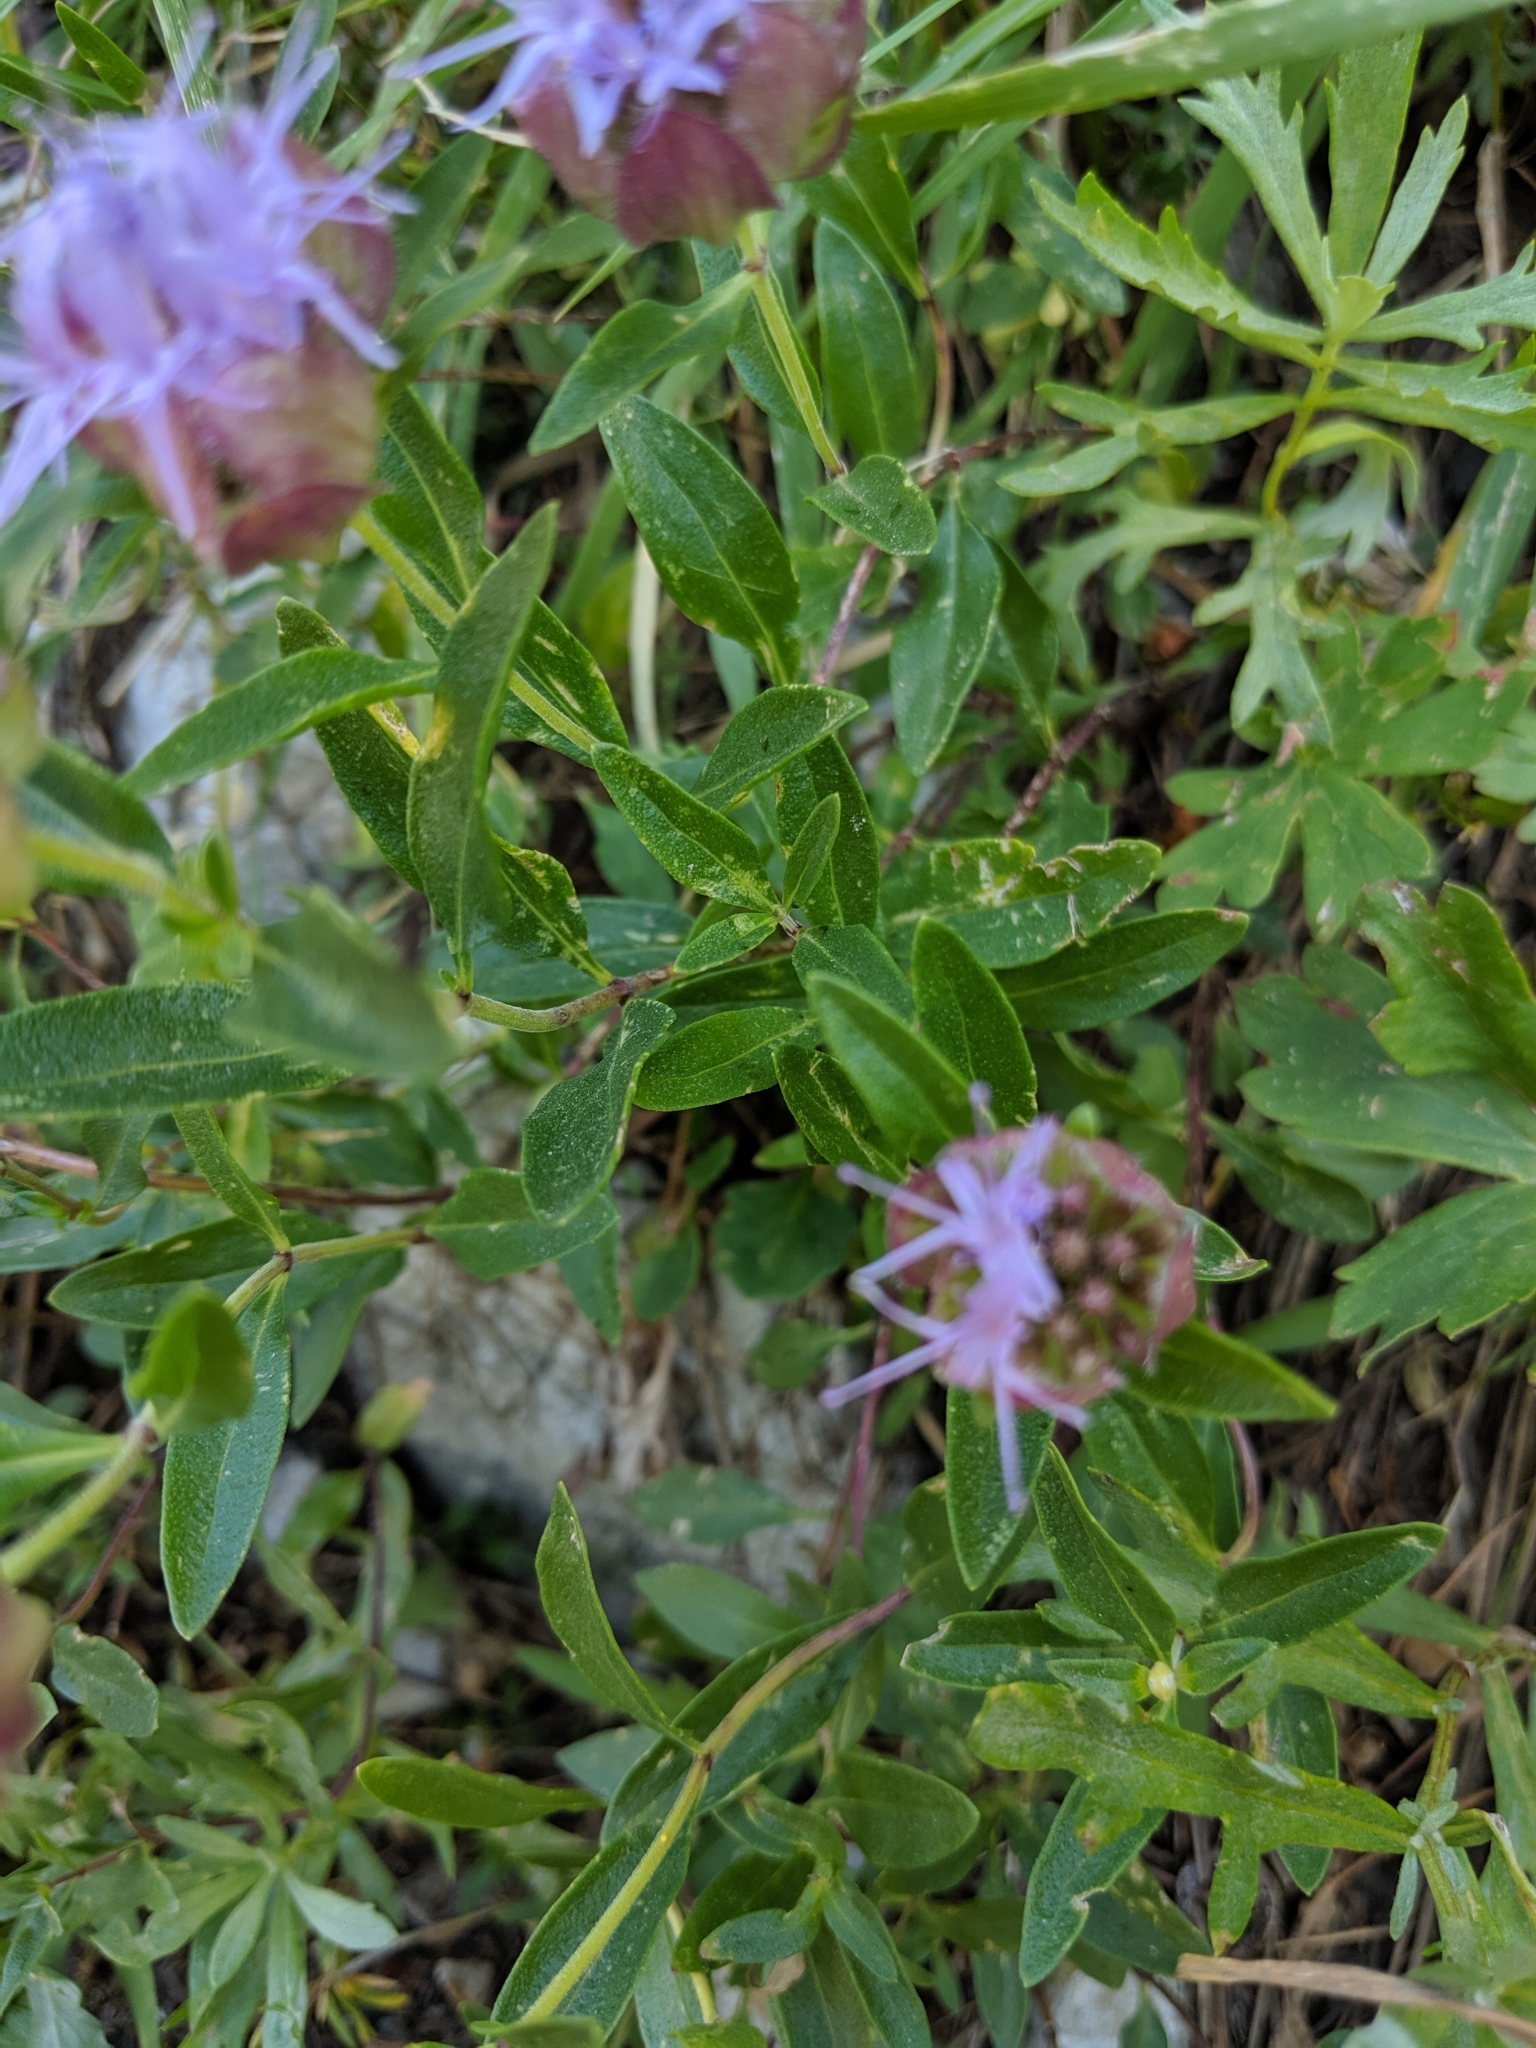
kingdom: Plantae
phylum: Tracheophyta
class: Magnoliopsida
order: Lamiales
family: Lamiaceae
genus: Monardella
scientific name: Monardella odoratissima
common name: Pacific monardella
